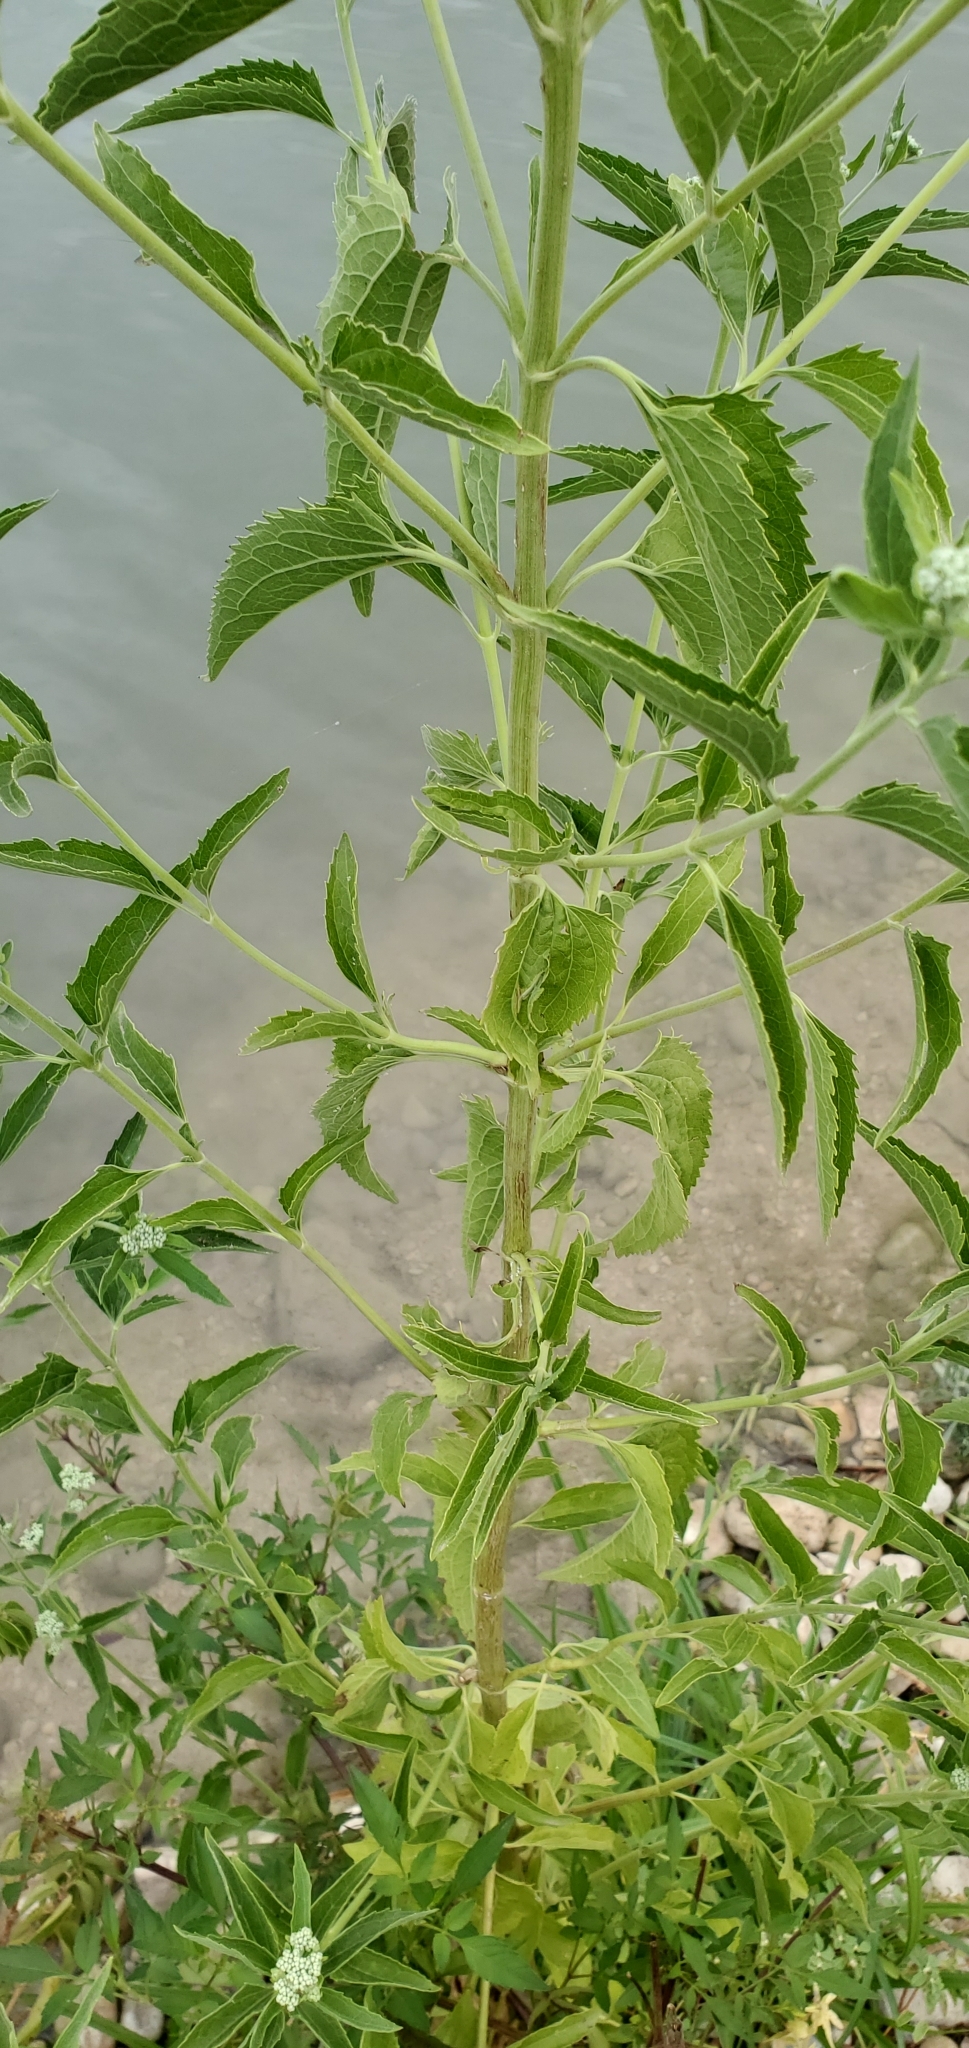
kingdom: Plantae
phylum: Tracheophyta
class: Magnoliopsida
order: Asterales
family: Asteraceae
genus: Eupatorium
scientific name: Eupatorium serotinum
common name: Late boneset
